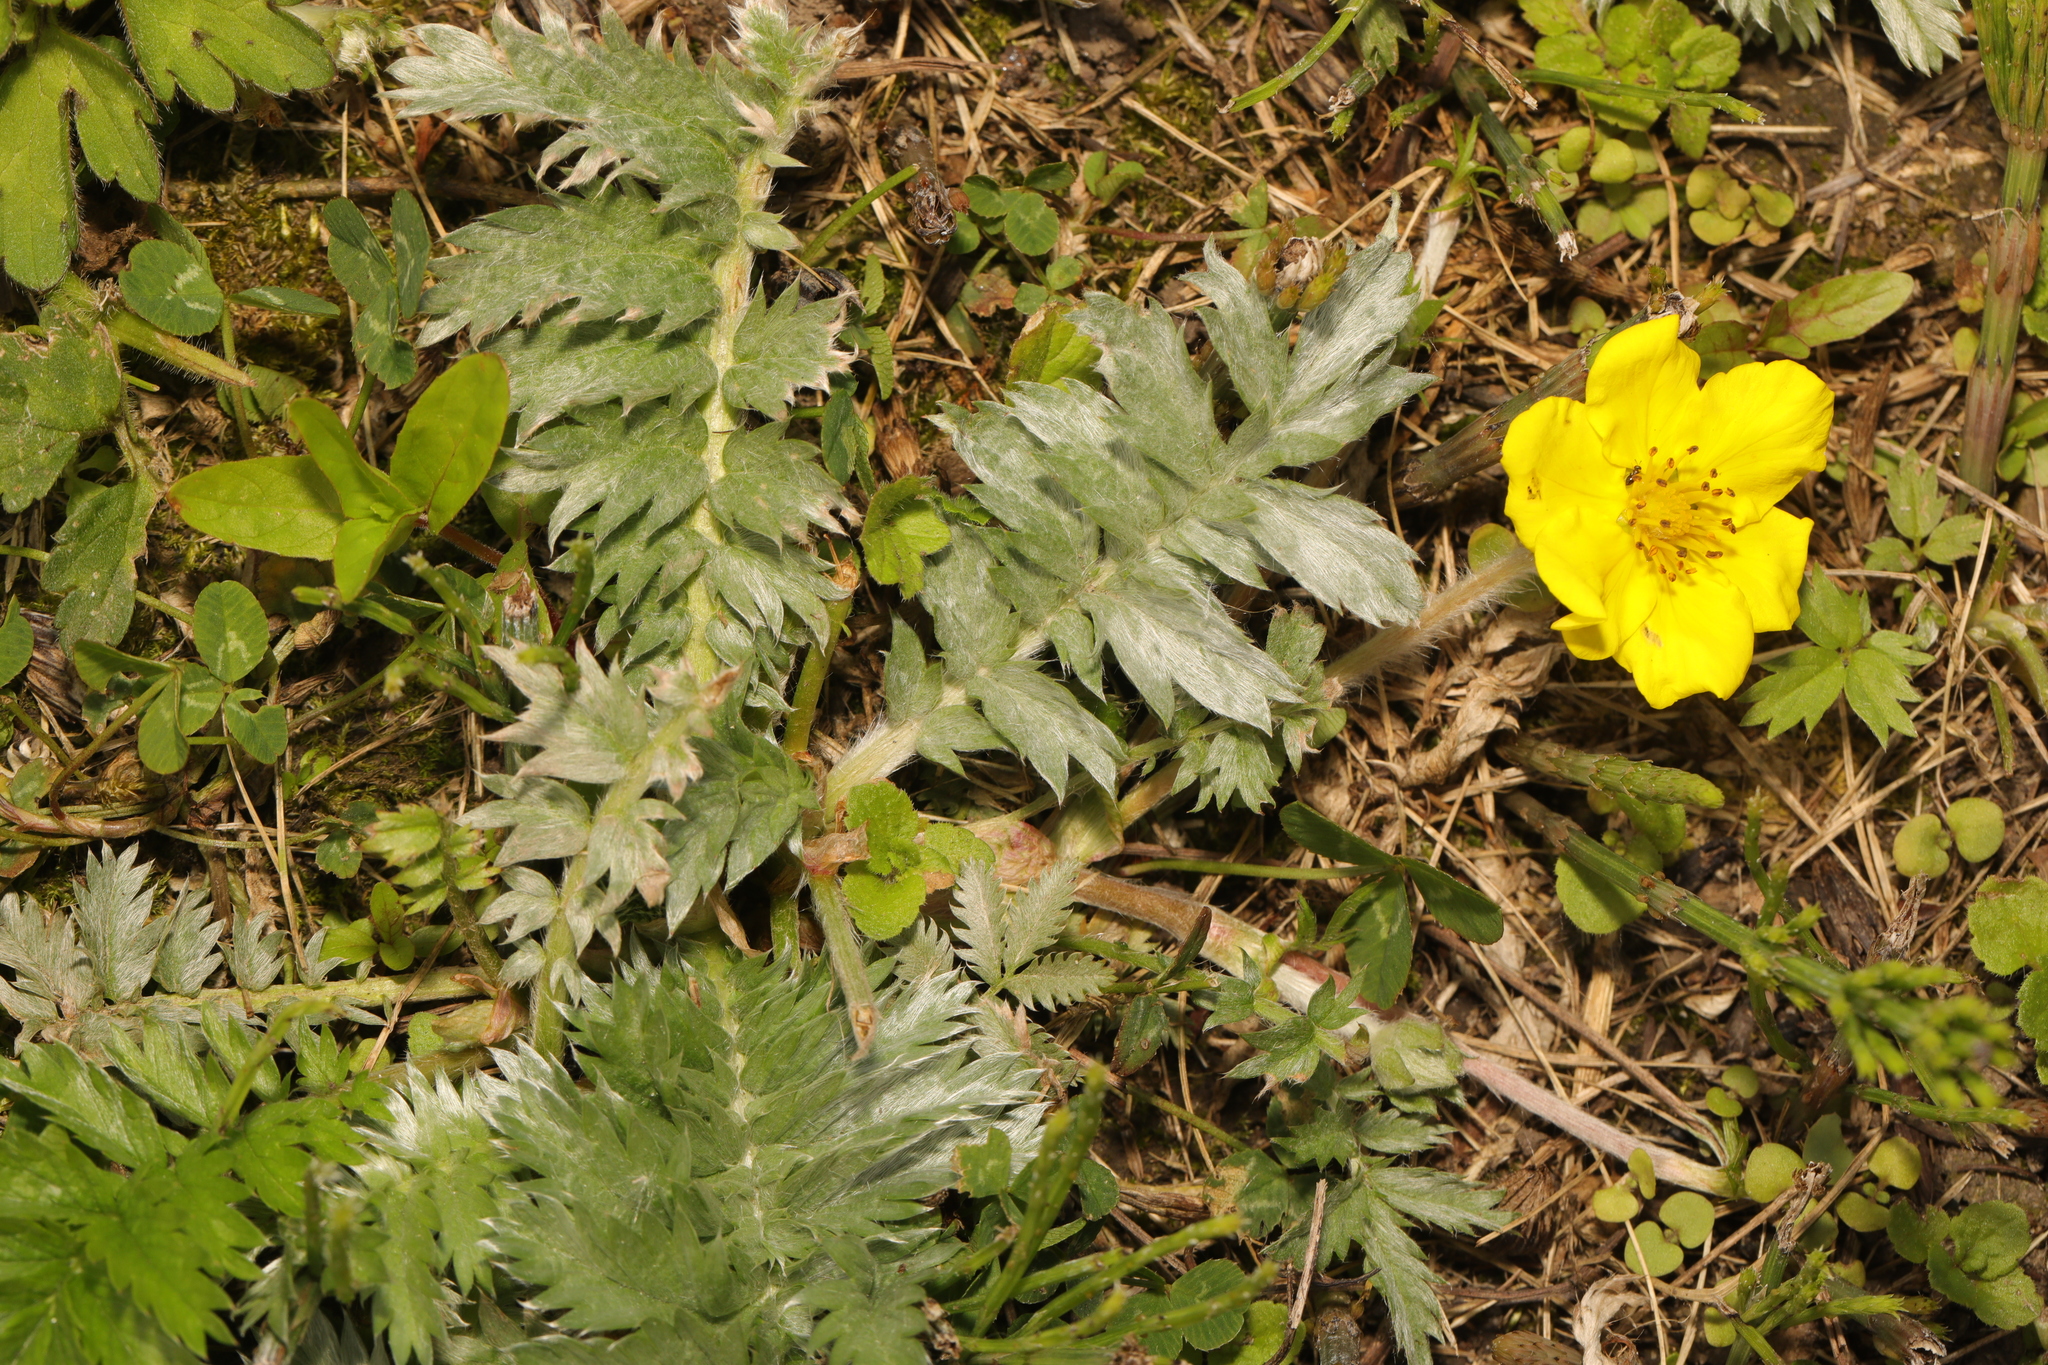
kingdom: Plantae
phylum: Tracheophyta
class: Magnoliopsida
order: Rosales
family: Rosaceae
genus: Argentina
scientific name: Argentina anserina
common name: Common silverweed
